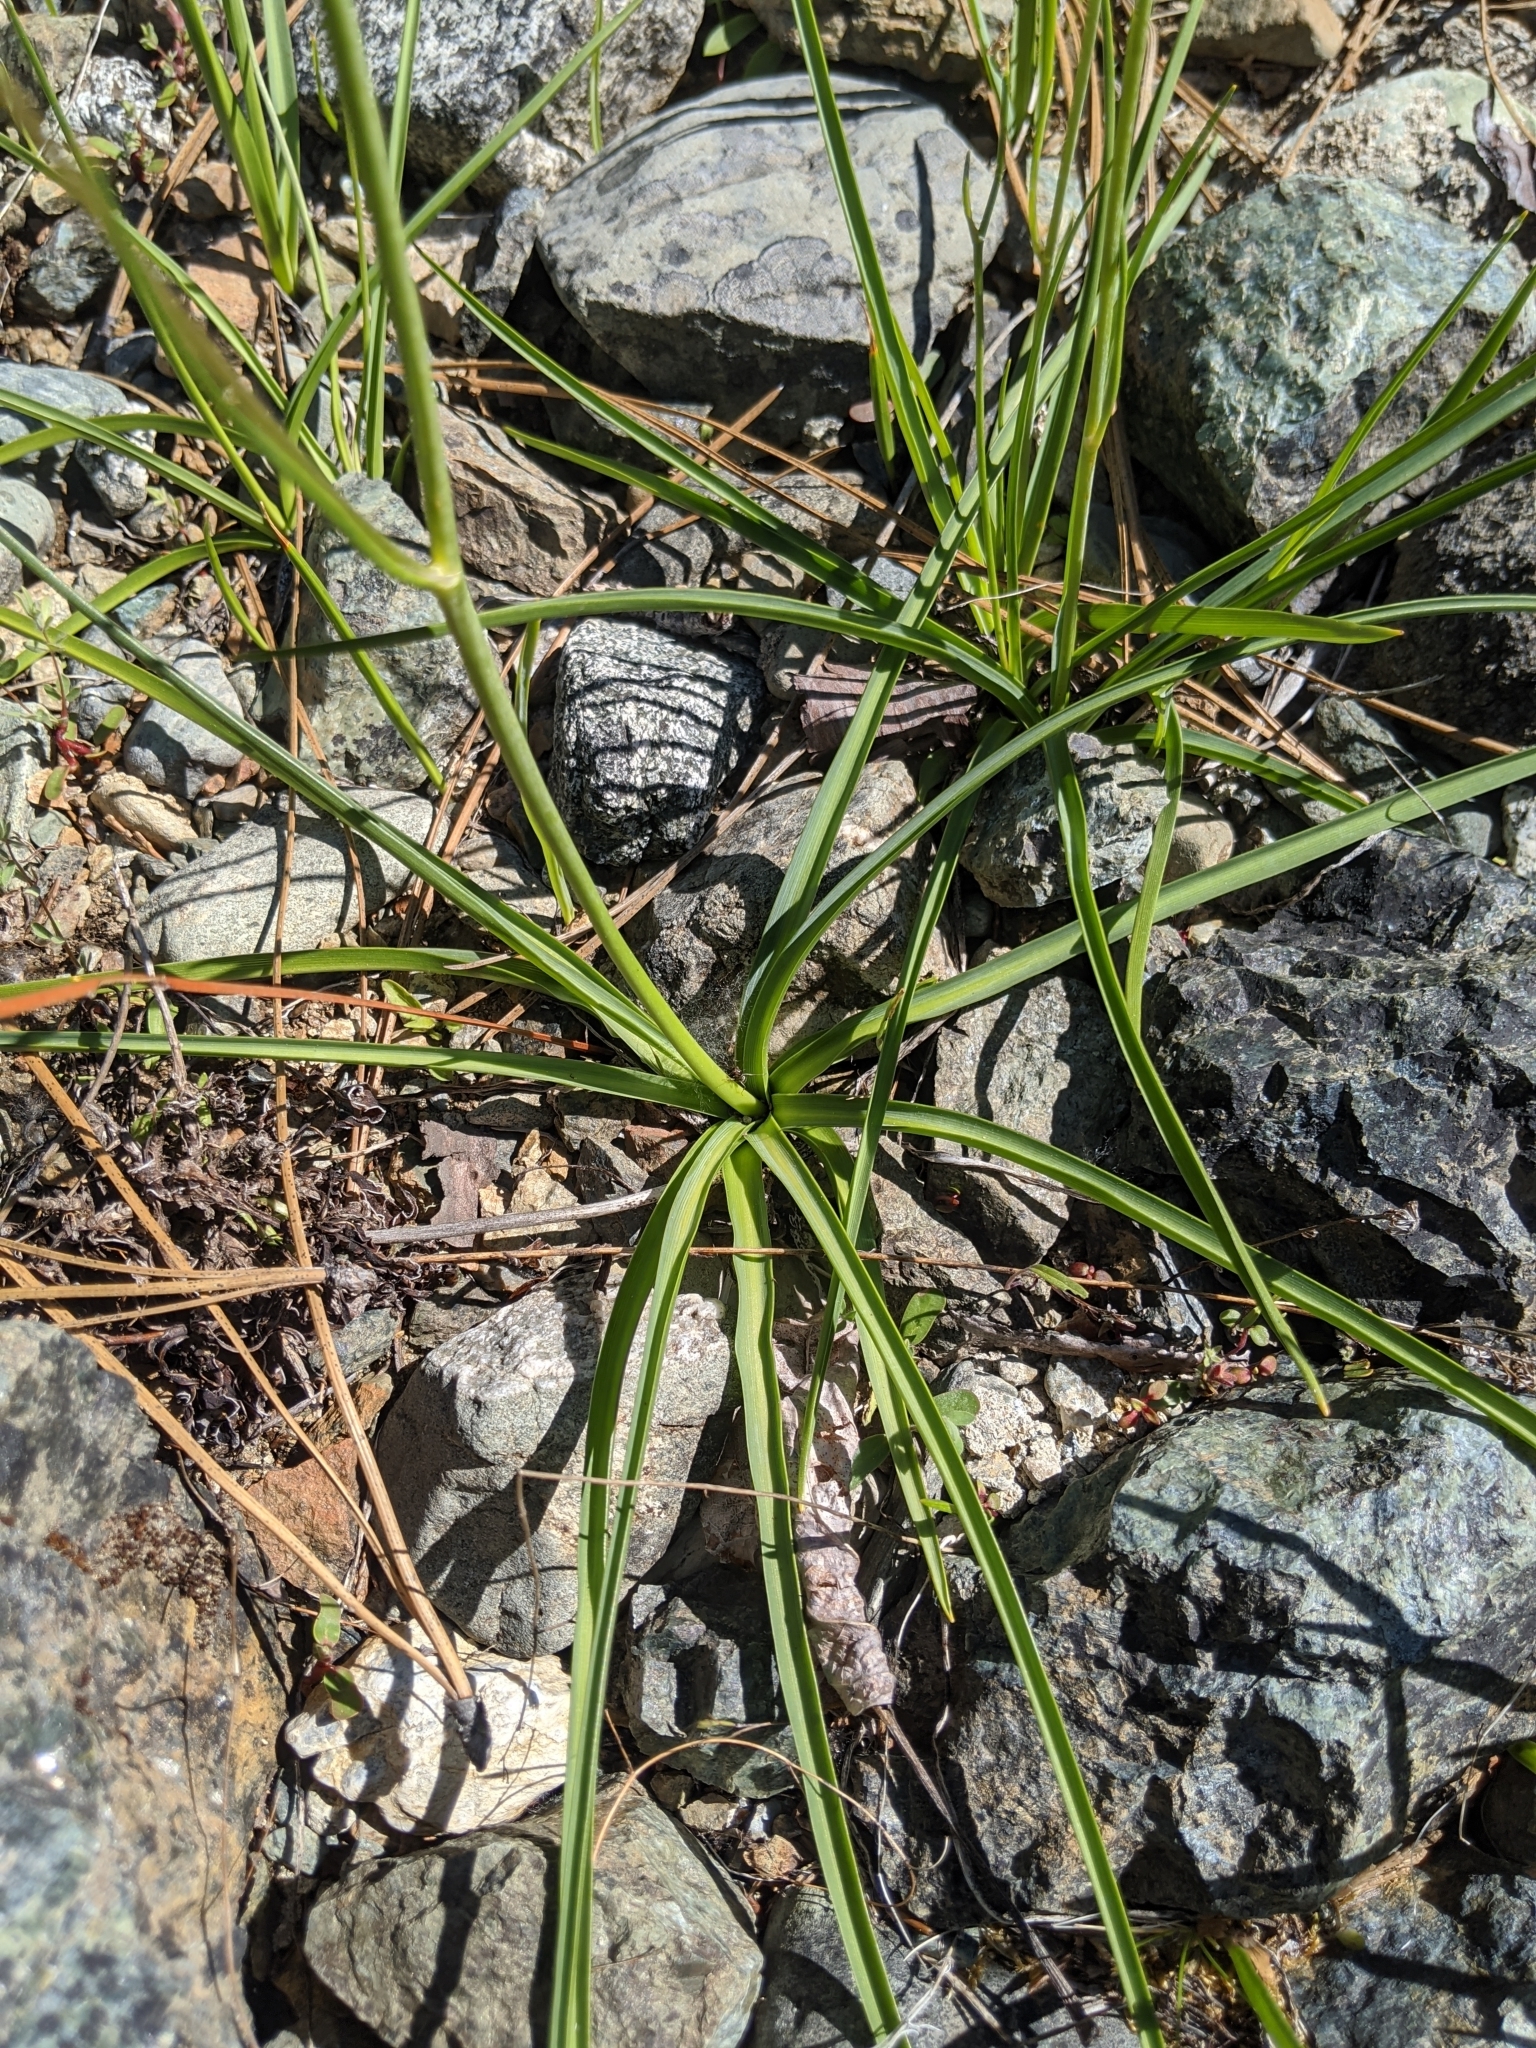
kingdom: Plantae
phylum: Tracheophyta
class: Liliopsida
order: Asparagales
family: Asparagaceae
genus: Hastingsia
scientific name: Hastingsia serpentinicola
